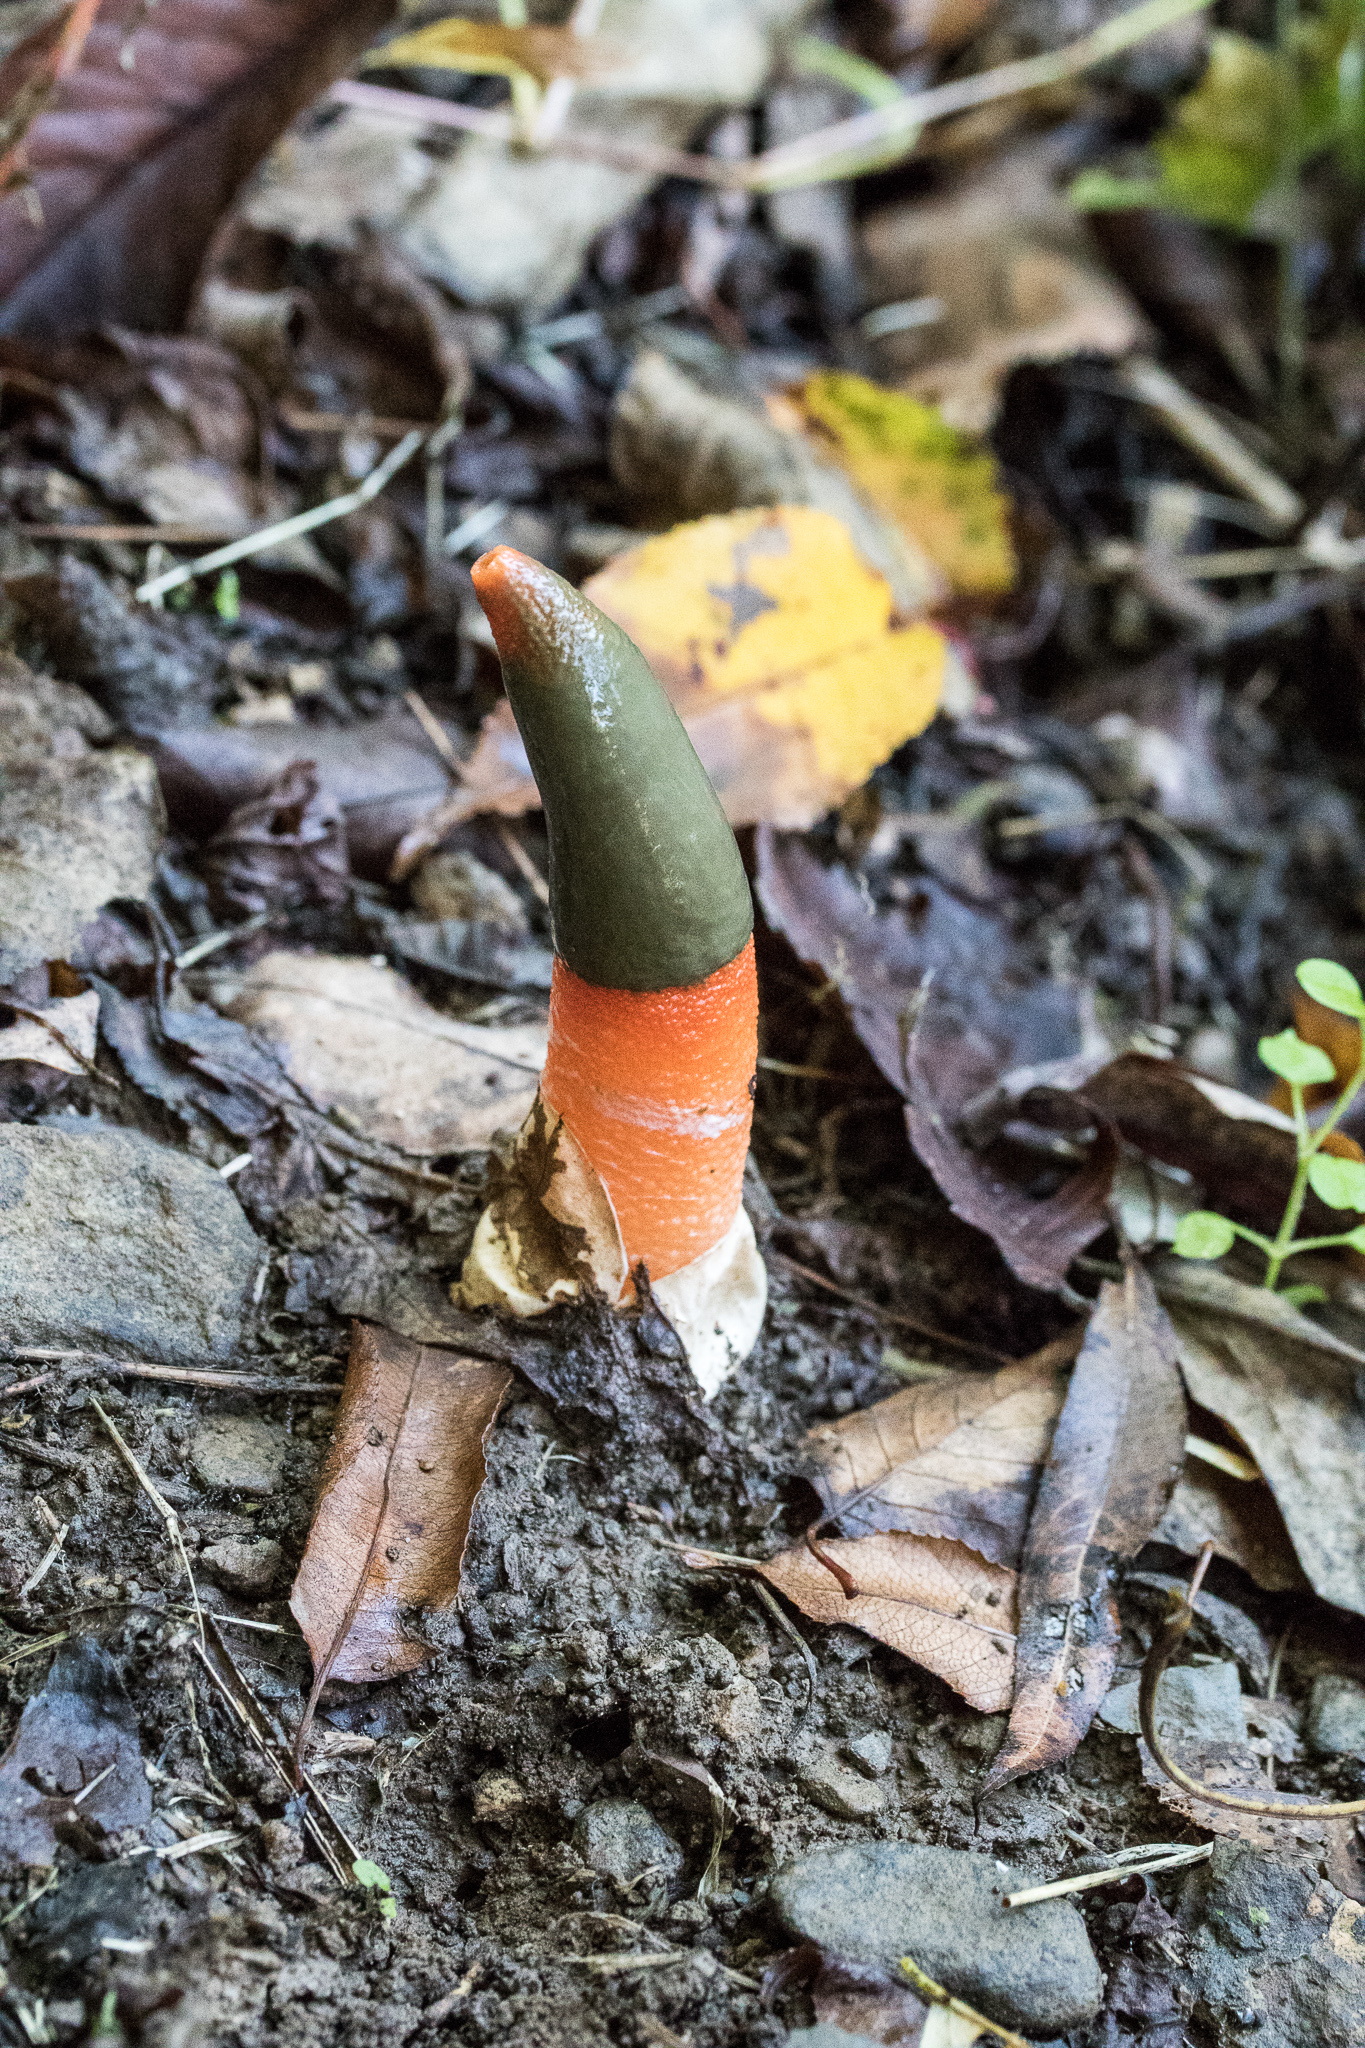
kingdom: Fungi
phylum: Basidiomycota
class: Agaricomycetes
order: Phallales
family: Phallaceae
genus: Mutinus
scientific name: Mutinus elegans
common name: Devil's dipstick
